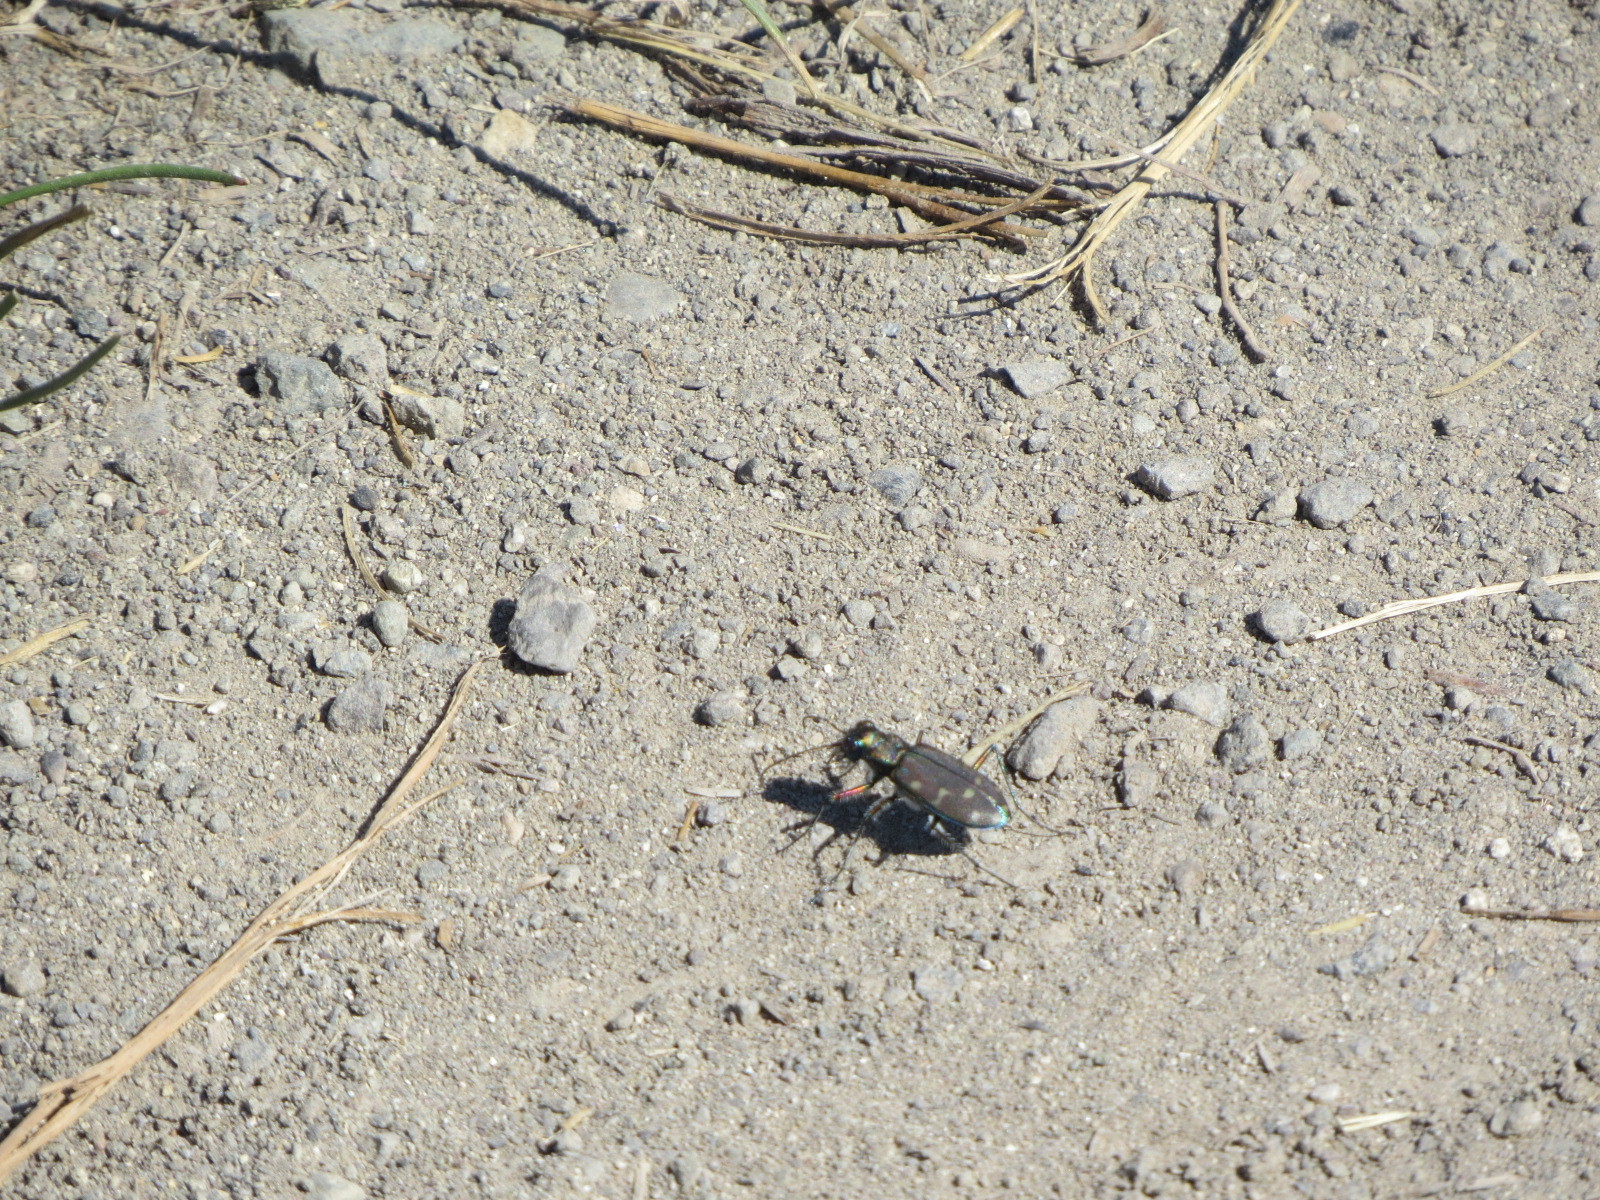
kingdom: Animalia
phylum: Arthropoda
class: Insecta
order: Coleoptera
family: Carabidae
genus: Cicindela
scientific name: Cicindela oregona
